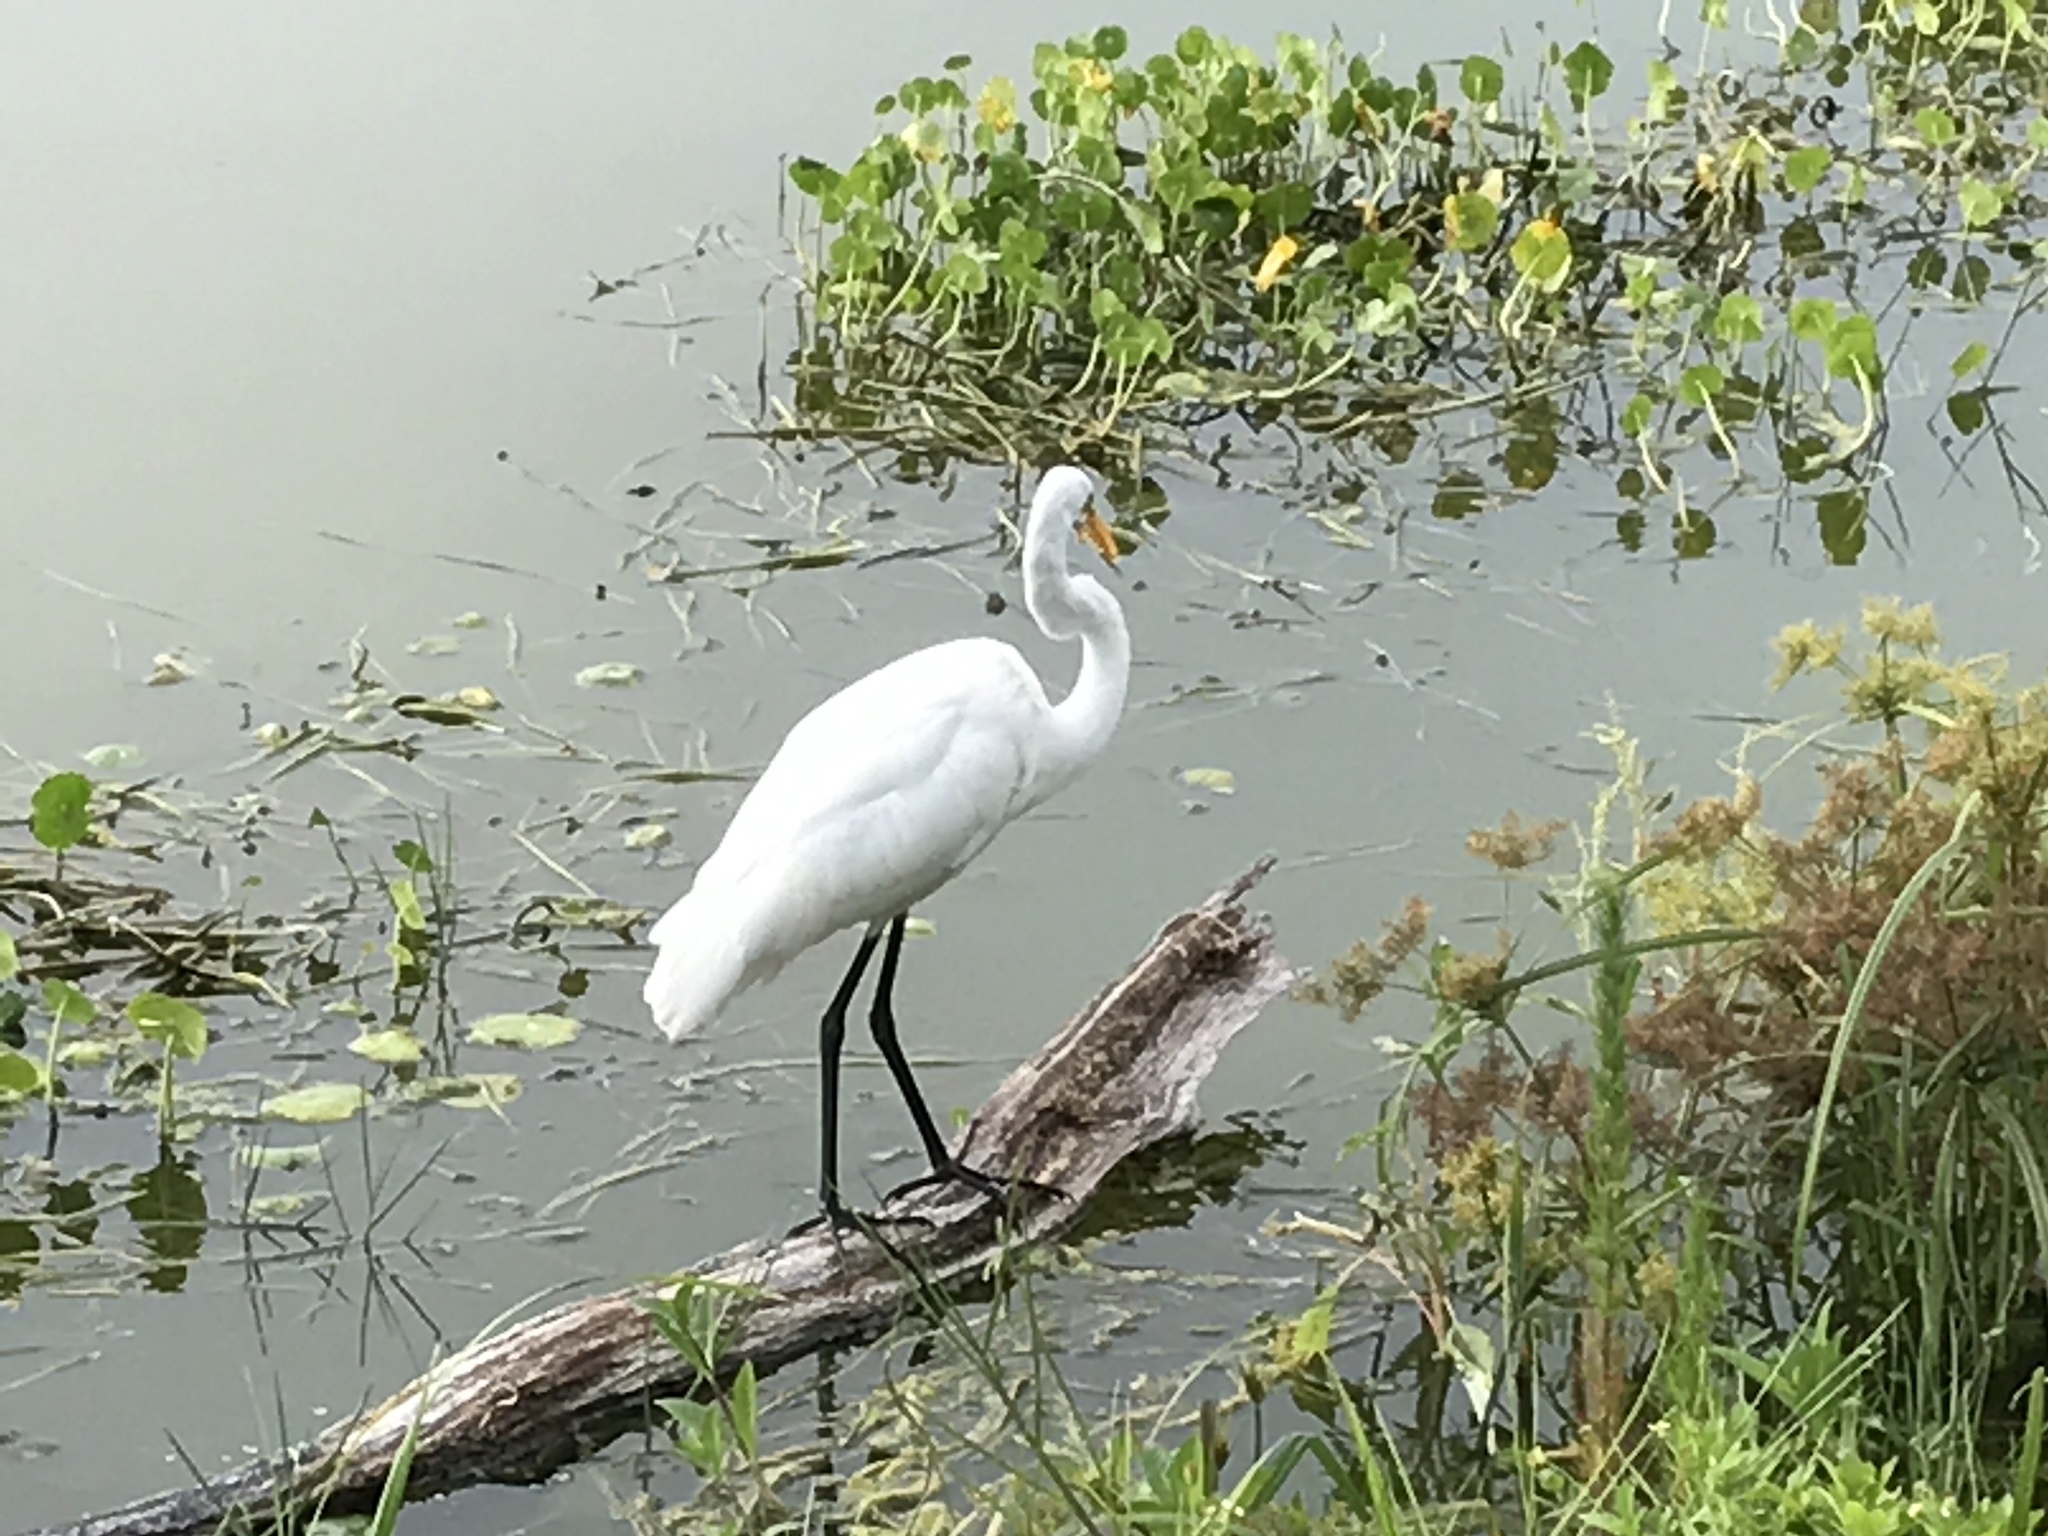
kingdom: Animalia
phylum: Chordata
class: Aves
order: Pelecaniformes
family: Ardeidae
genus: Ardea
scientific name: Ardea alba
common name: Great egret
